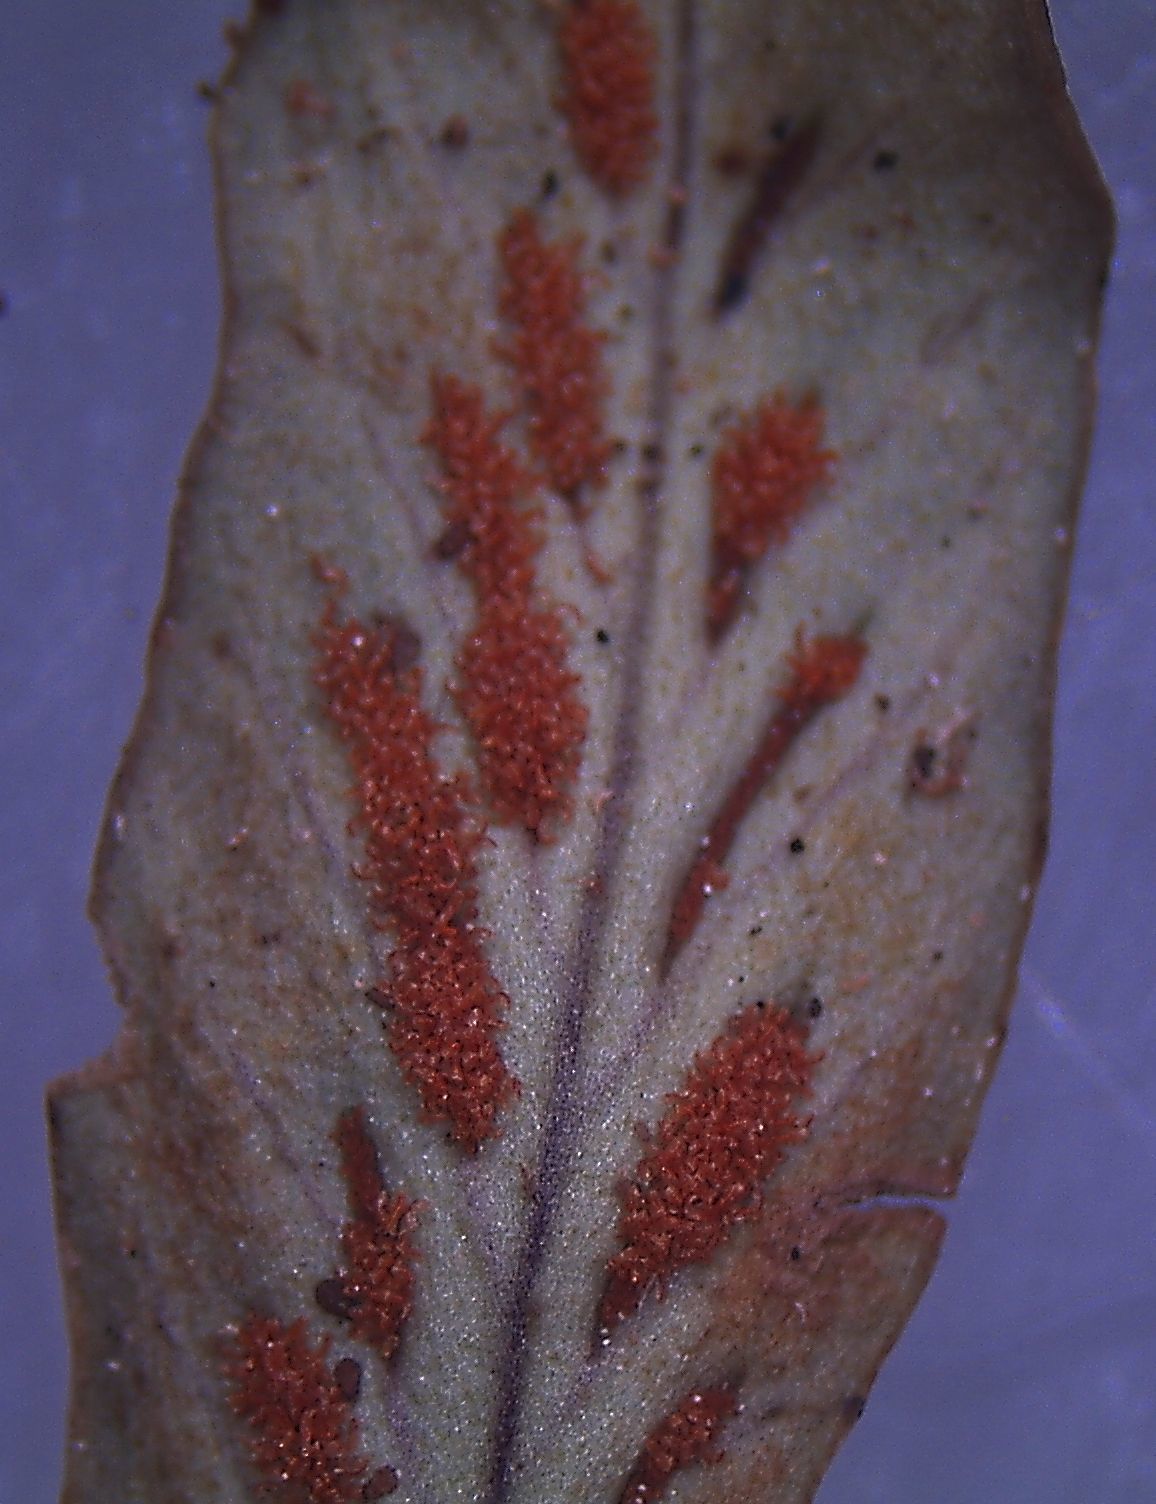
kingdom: Plantae
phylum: Tracheophyta
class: Polypodiopsida
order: Polypodiales
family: Polypodiaceae
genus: Notogrammitis
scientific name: Notogrammitis billardierei
